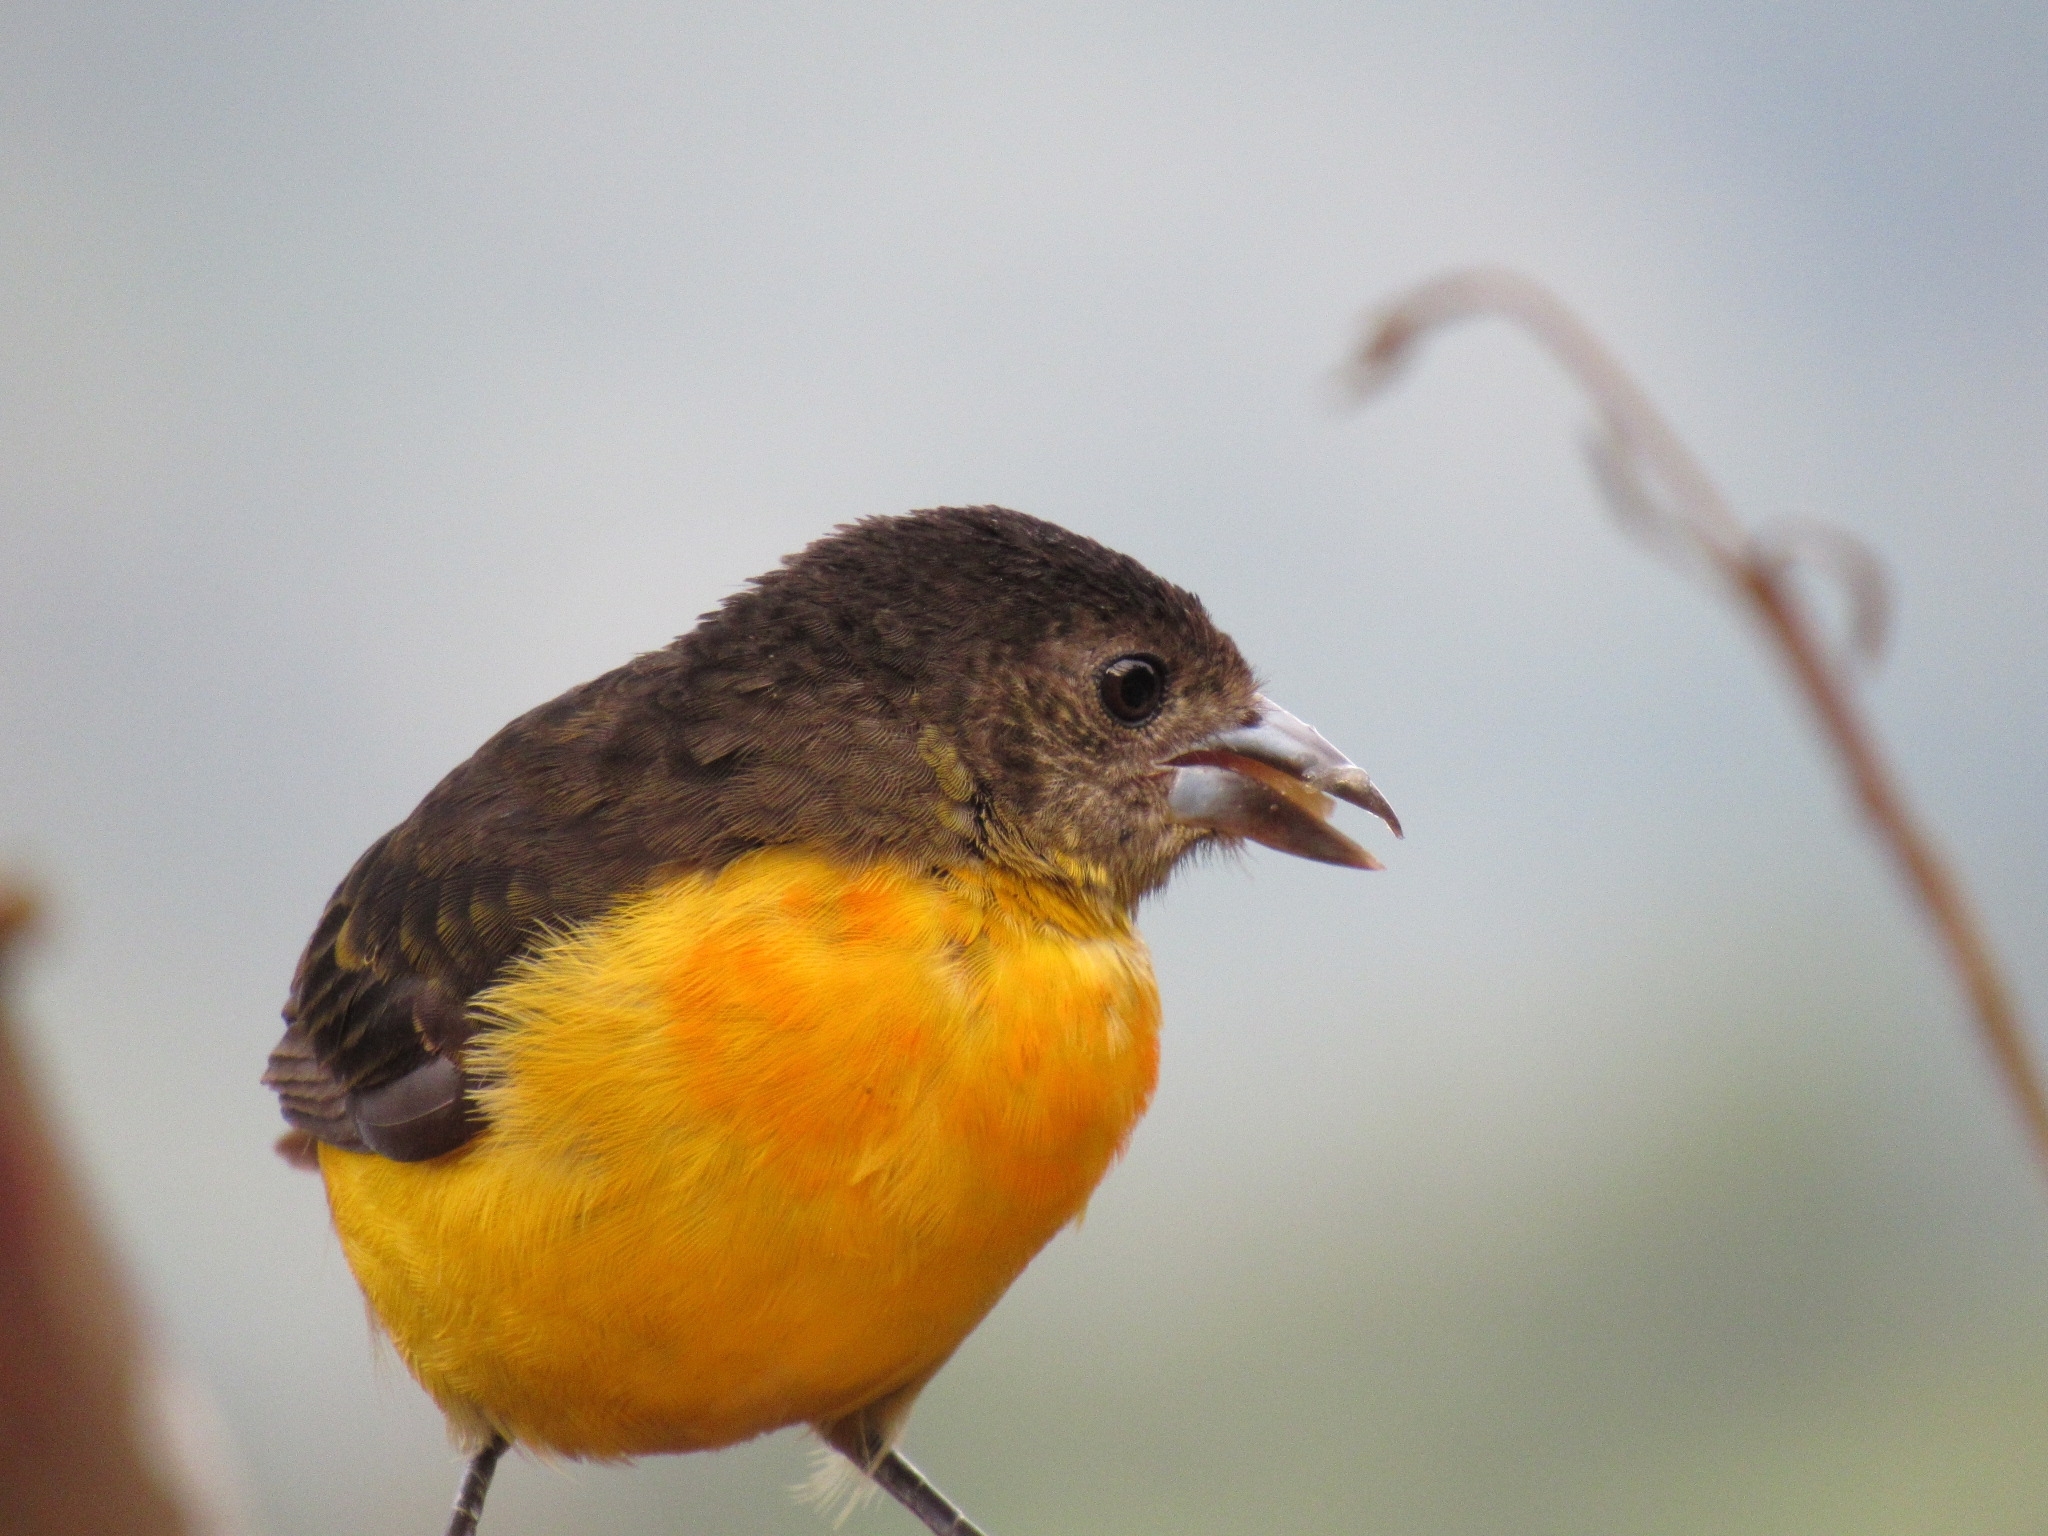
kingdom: Animalia
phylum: Chordata
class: Aves
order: Passeriformes
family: Thraupidae
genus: Ramphocelus
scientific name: Ramphocelus flammigerus
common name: Flame-rumped tanager
